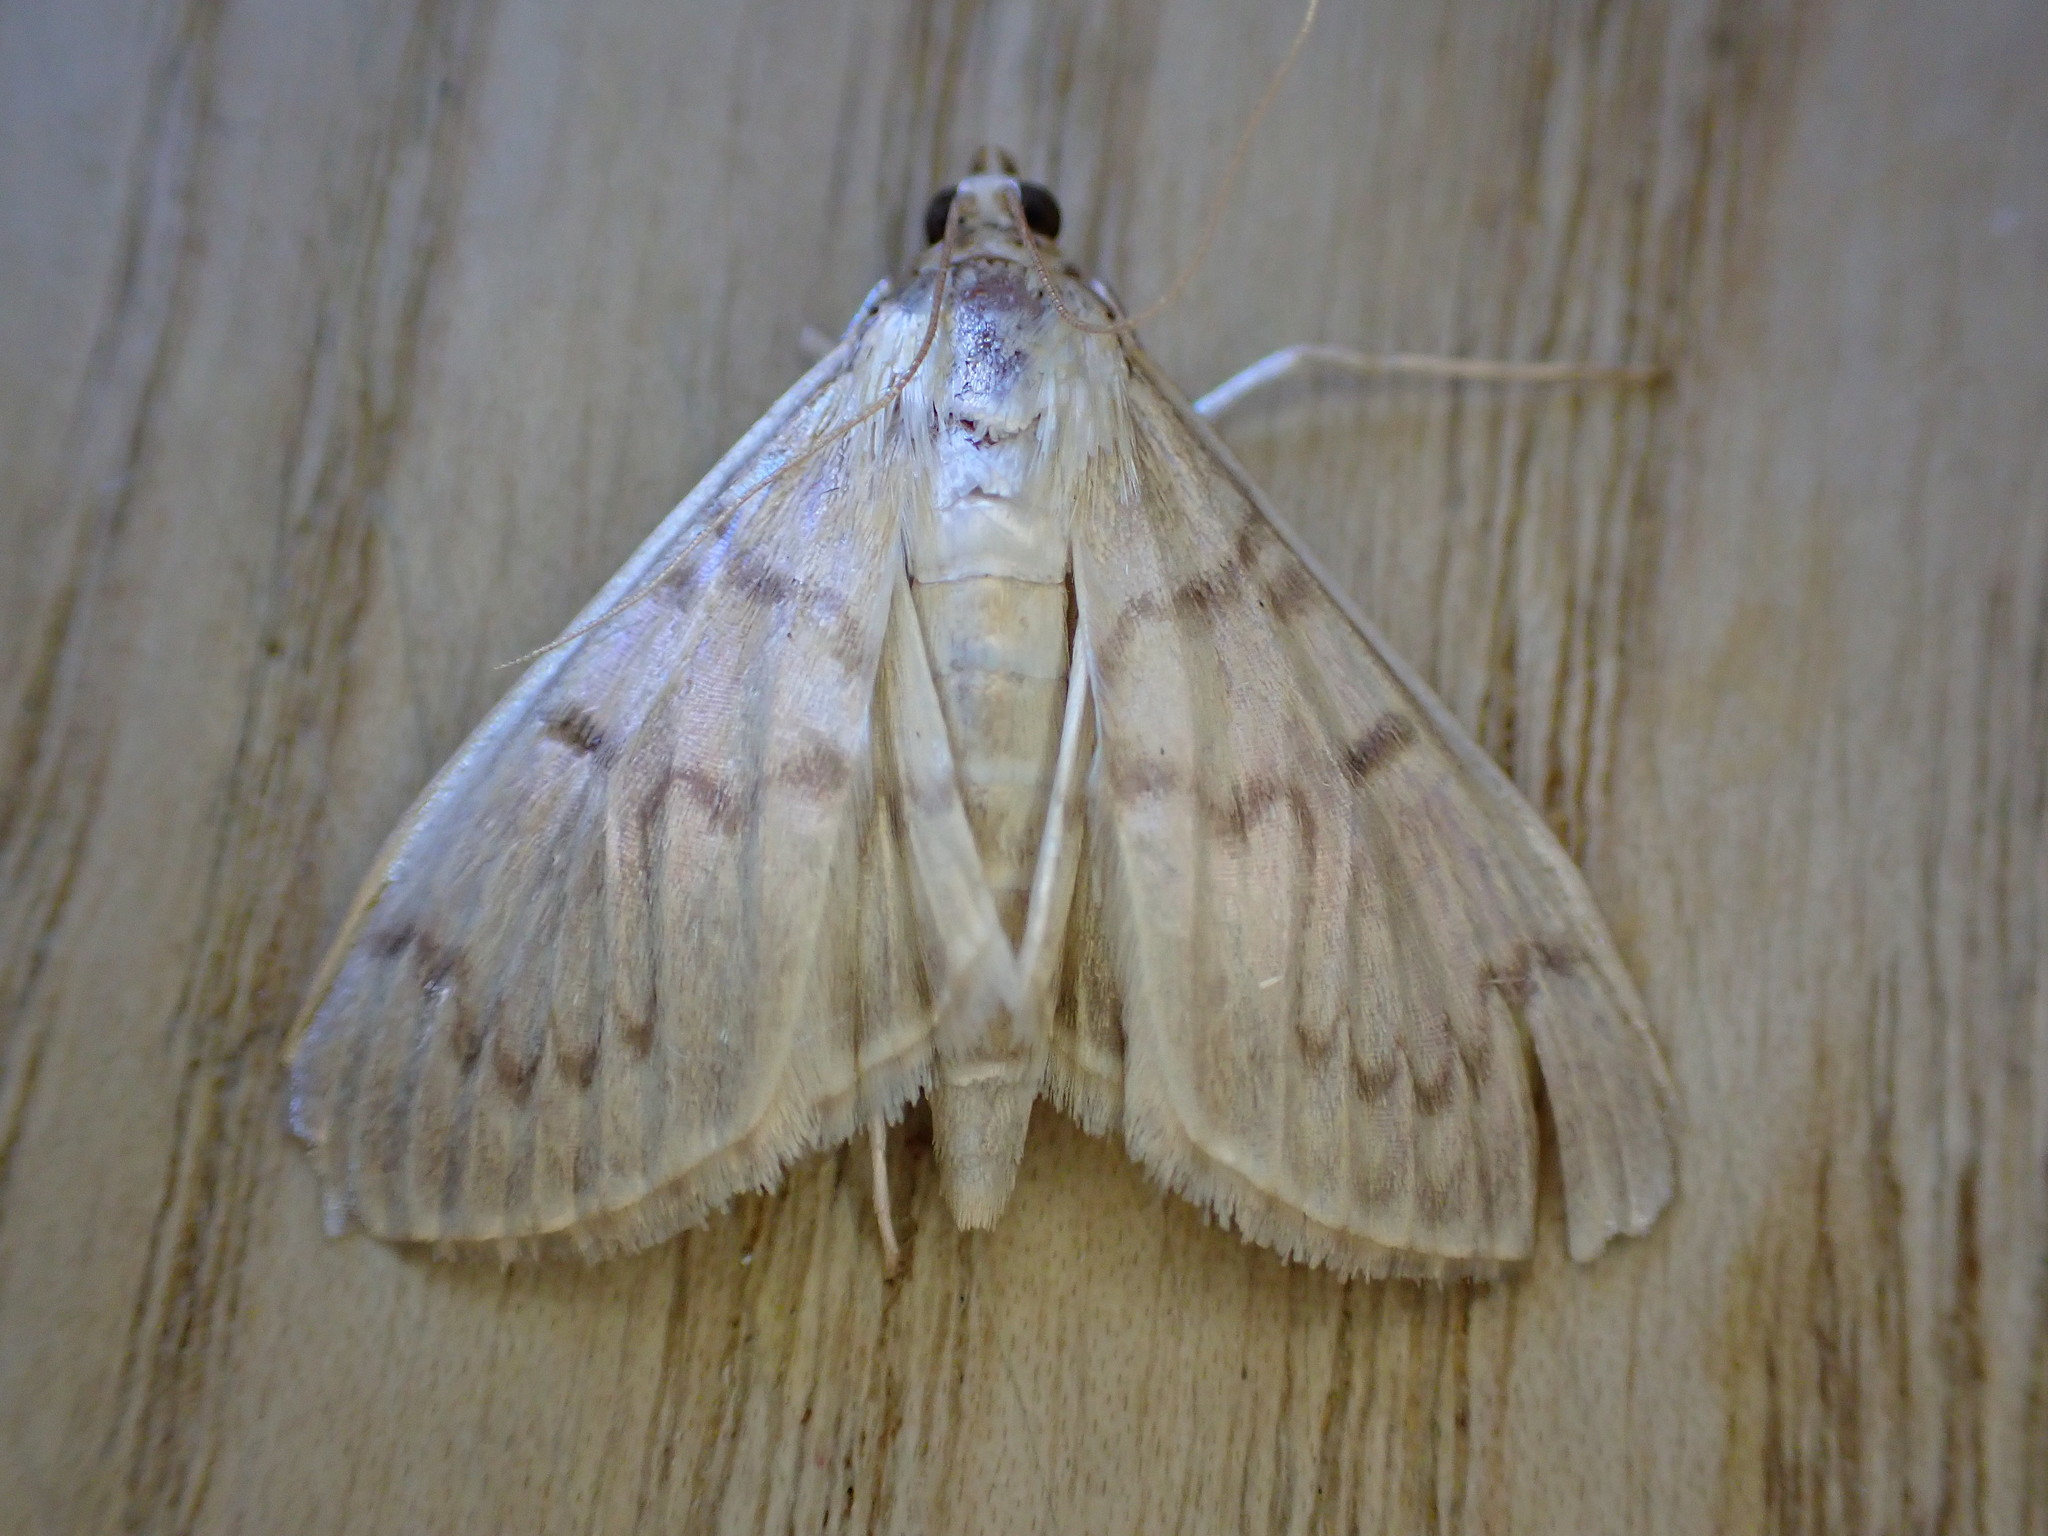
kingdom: Animalia
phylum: Arthropoda
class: Insecta
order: Lepidoptera
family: Crambidae
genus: Patania
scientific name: Patania ruralis
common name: Mother of pearl
